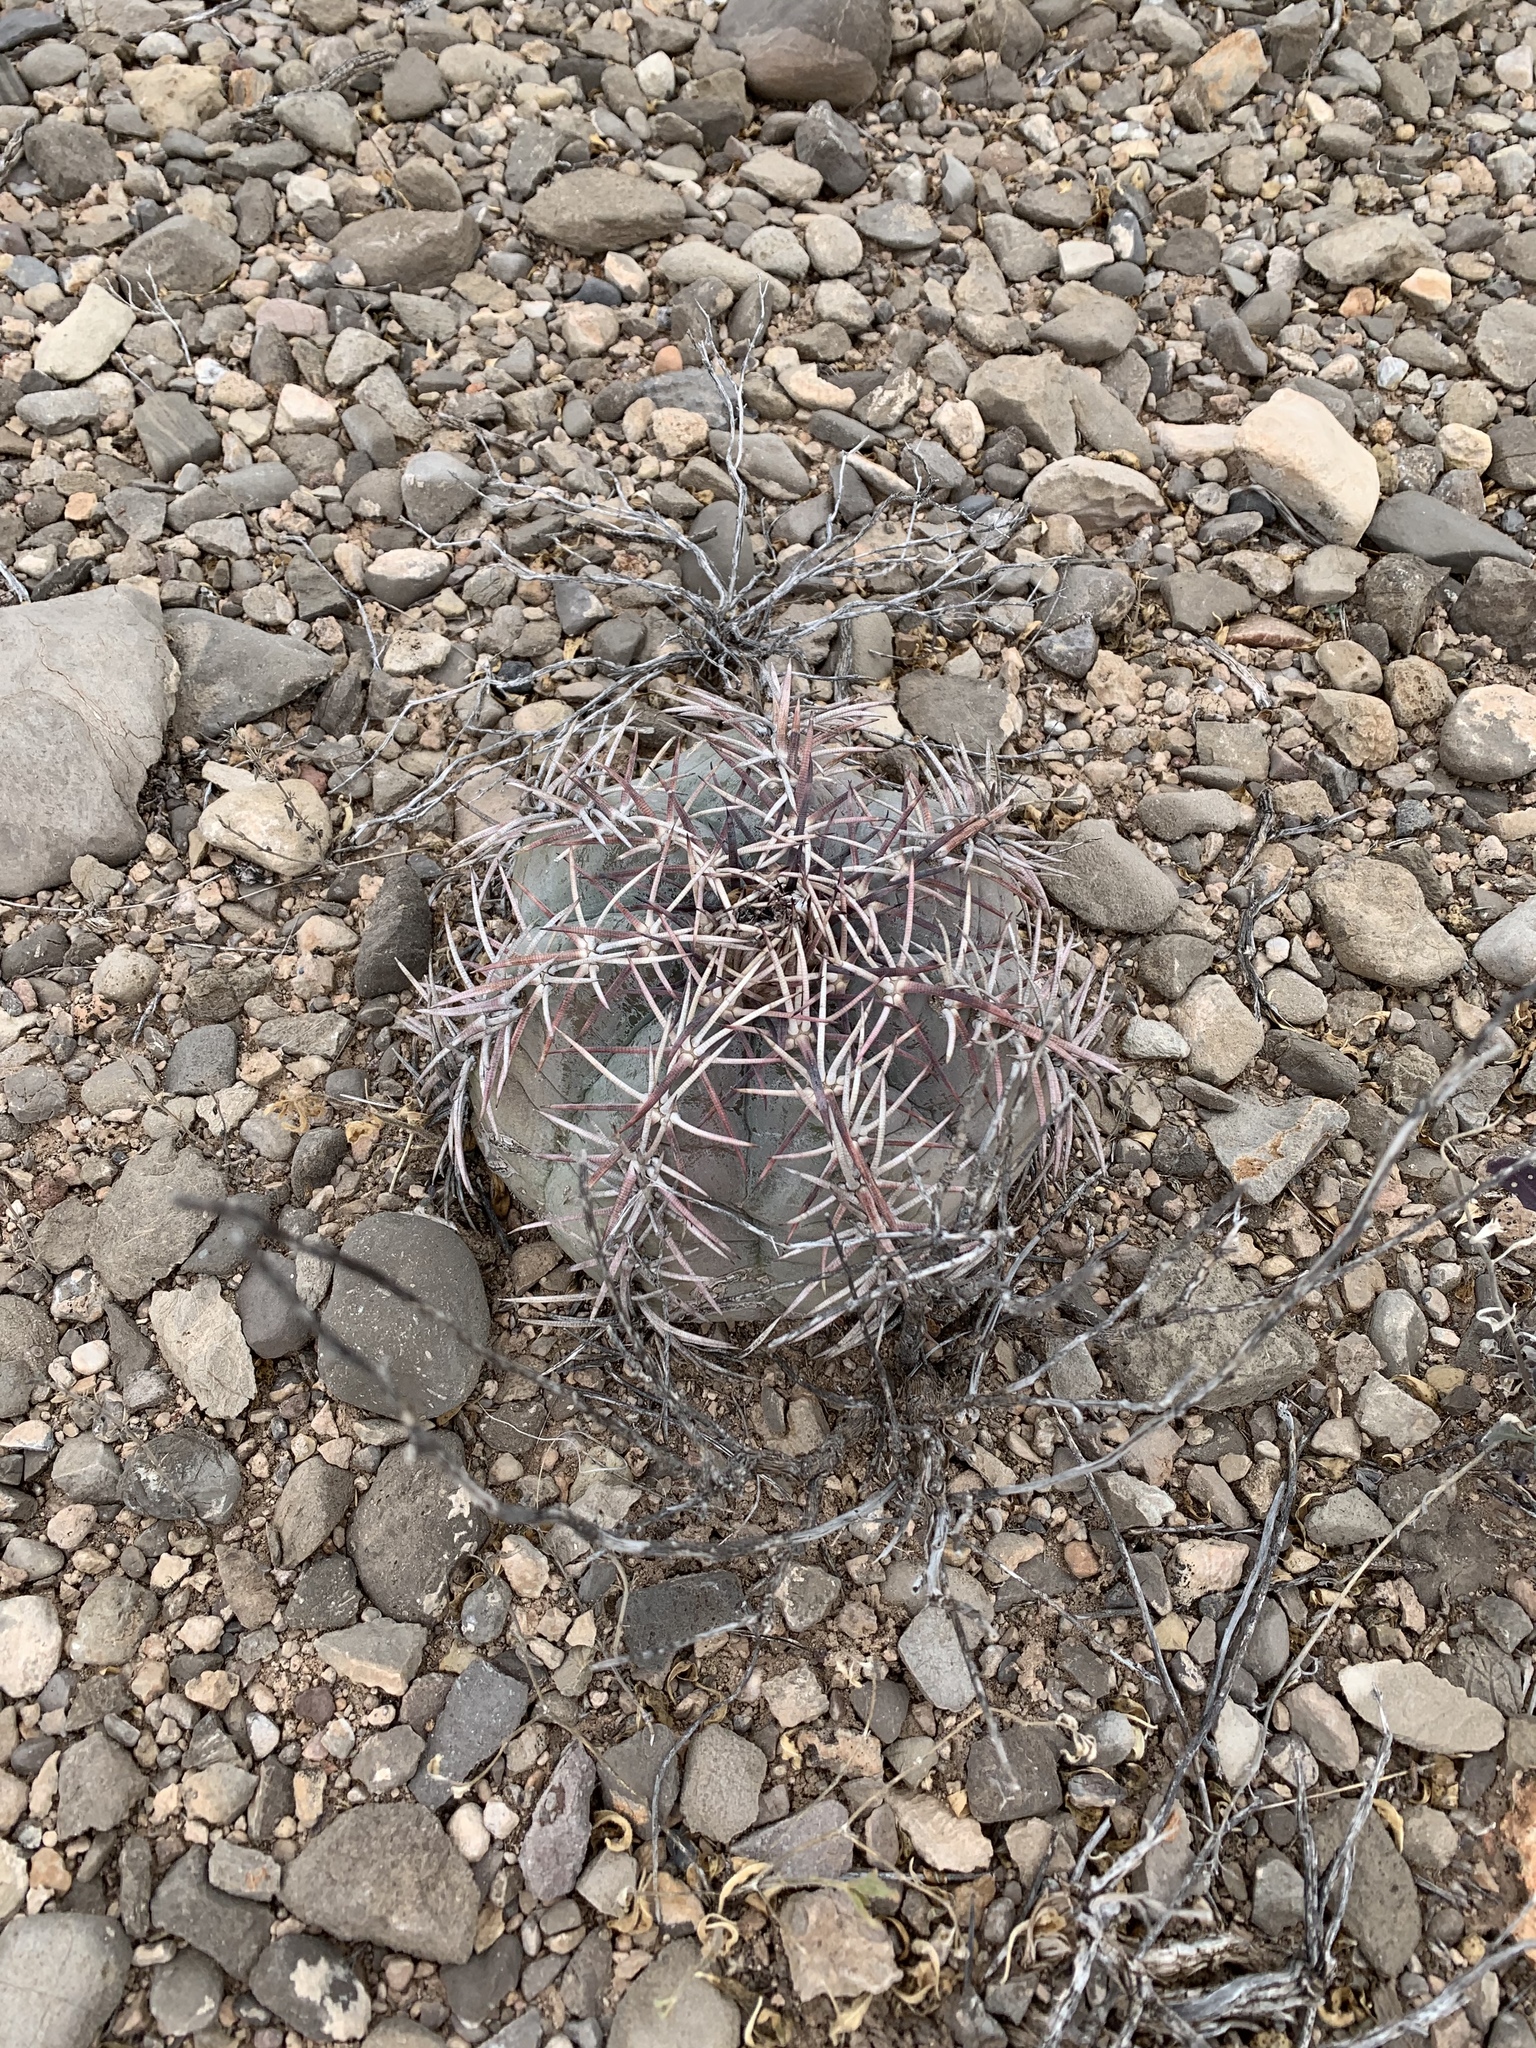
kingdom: Plantae
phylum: Tracheophyta
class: Magnoliopsida
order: Caryophyllales
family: Cactaceae
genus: Echinocactus
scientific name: Echinocactus horizonthalonius
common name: Devilshead
